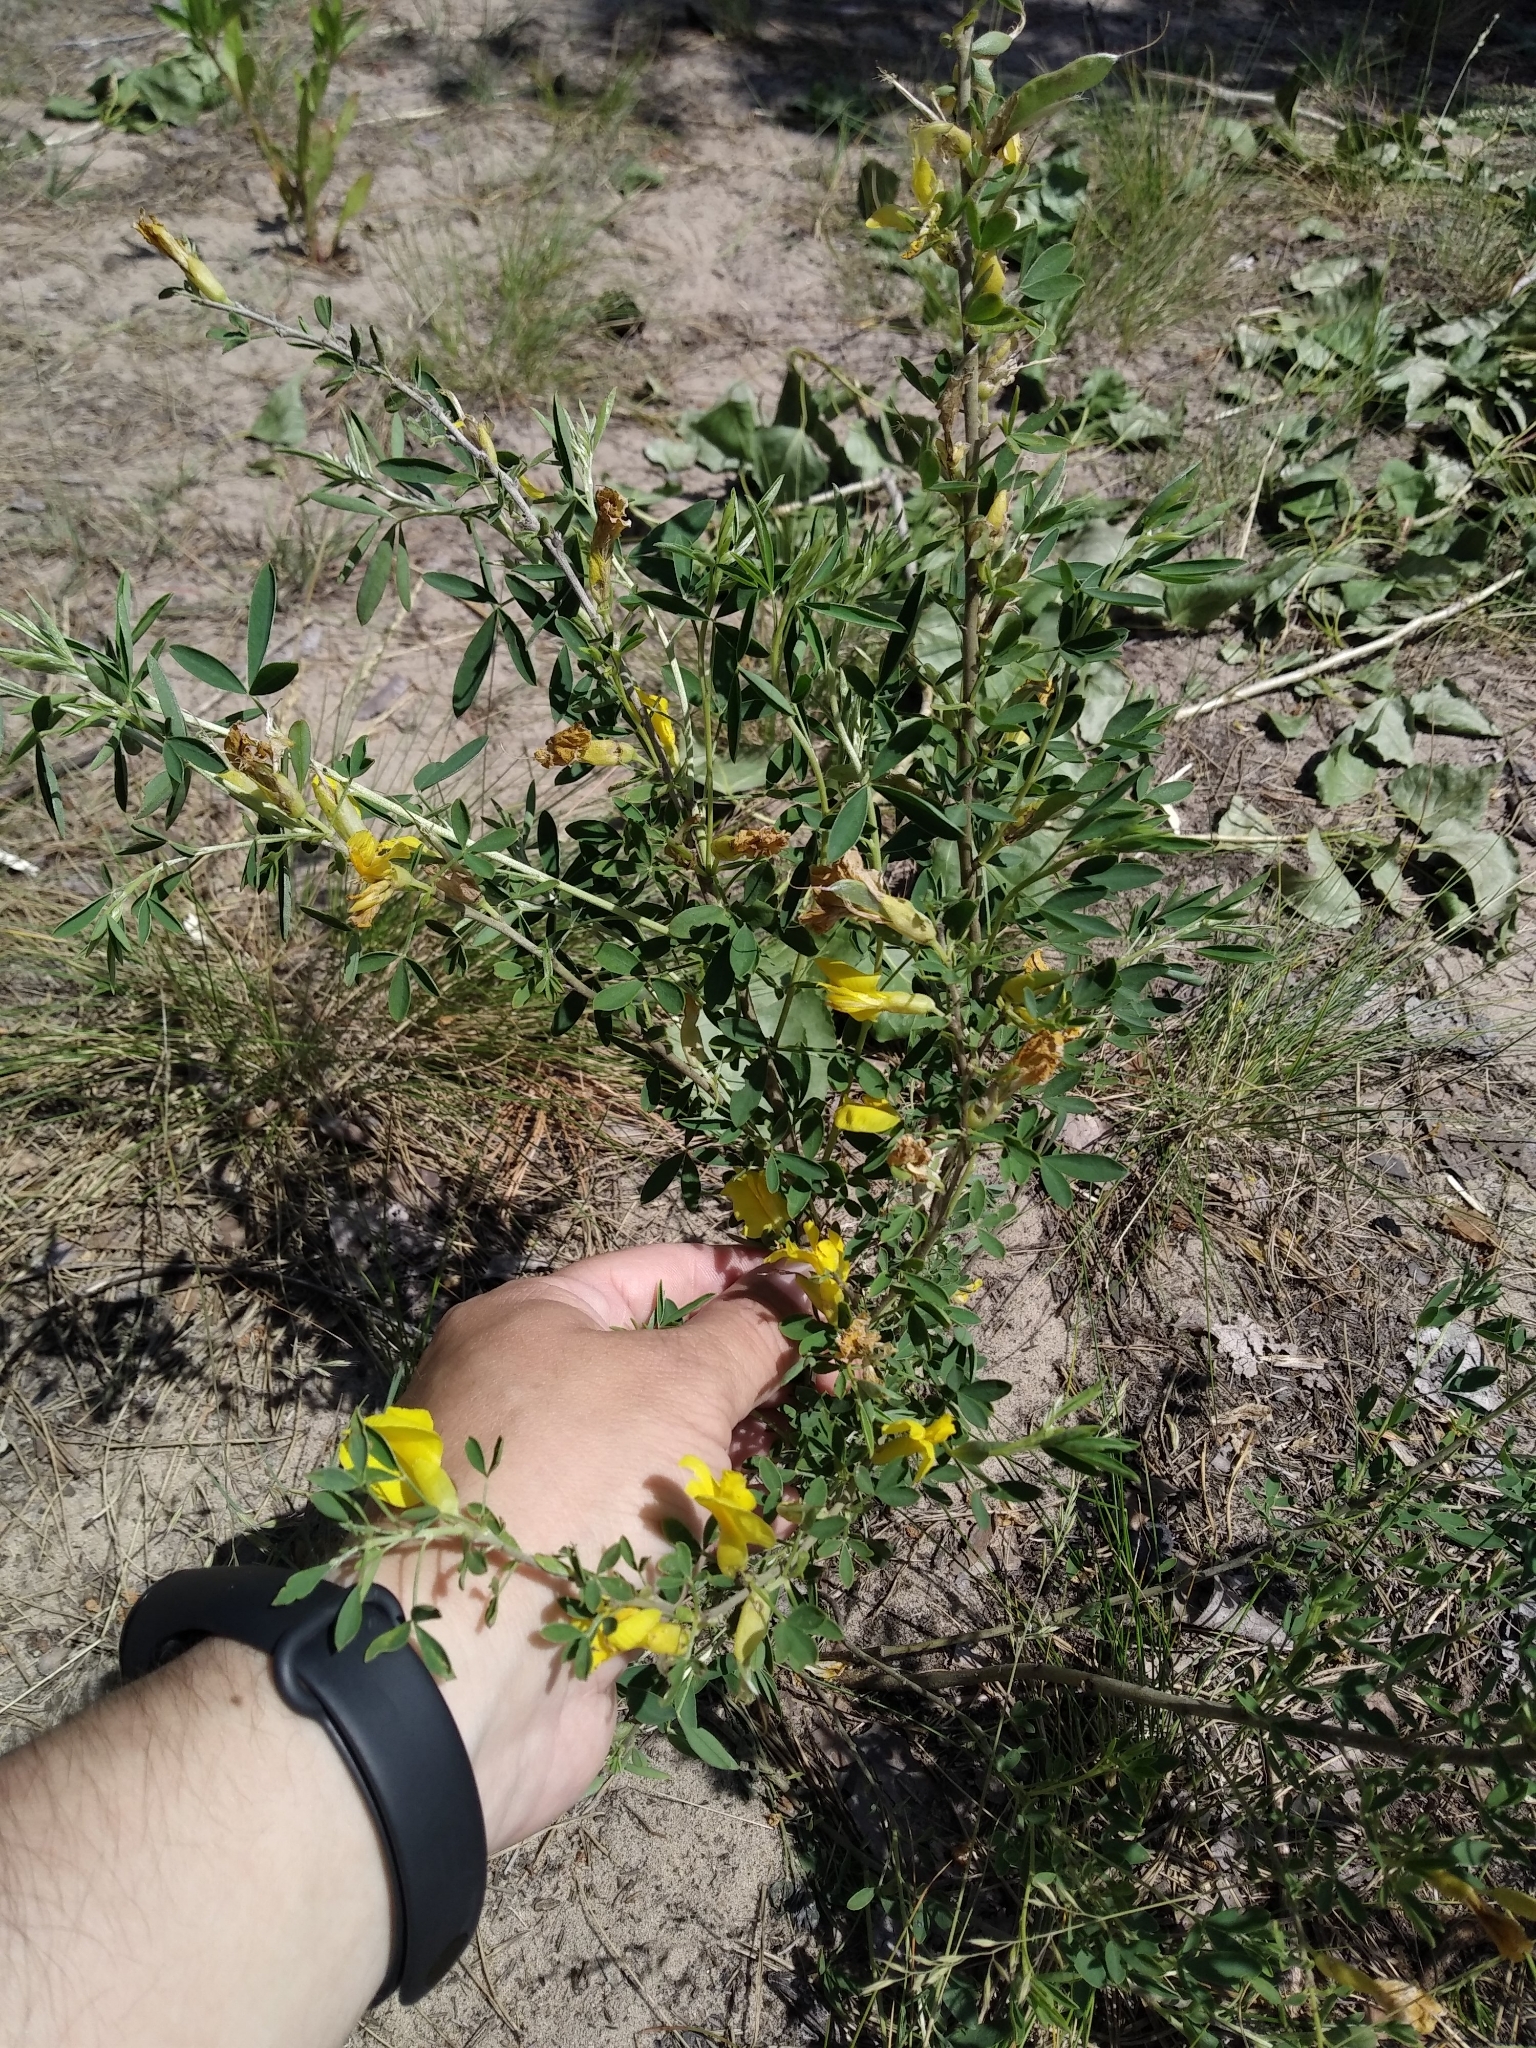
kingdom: Plantae
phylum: Tracheophyta
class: Magnoliopsida
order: Fabales
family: Fabaceae
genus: Chamaecytisus
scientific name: Chamaecytisus ruthenicus
